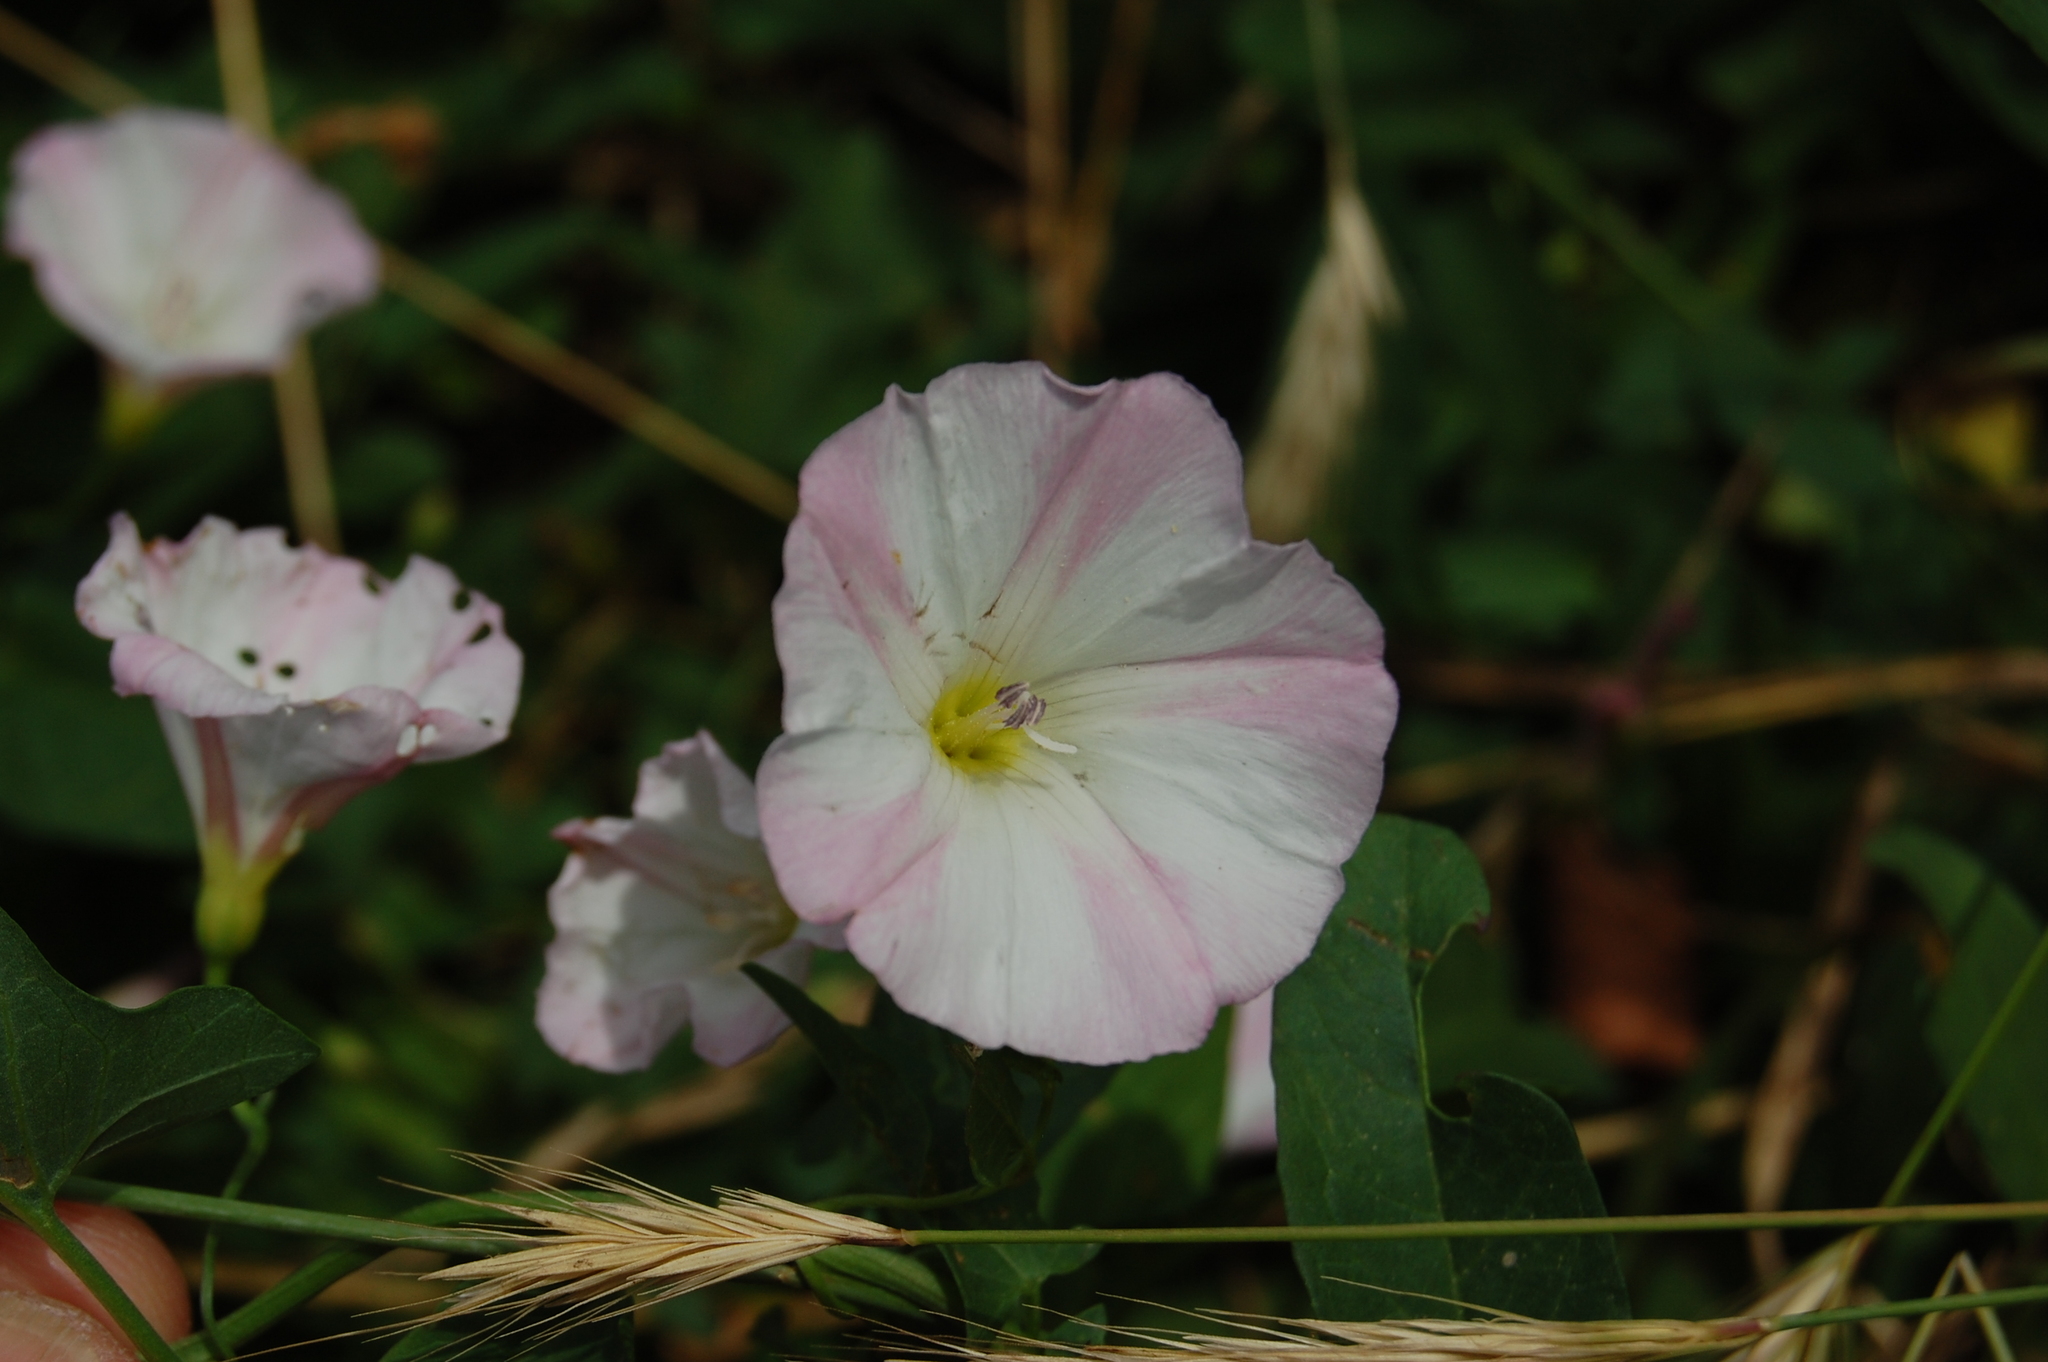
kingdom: Plantae
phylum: Tracheophyta
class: Magnoliopsida
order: Solanales
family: Convolvulaceae
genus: Convolvulus
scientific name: Convolvulus arvensis
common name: Field bindweed
